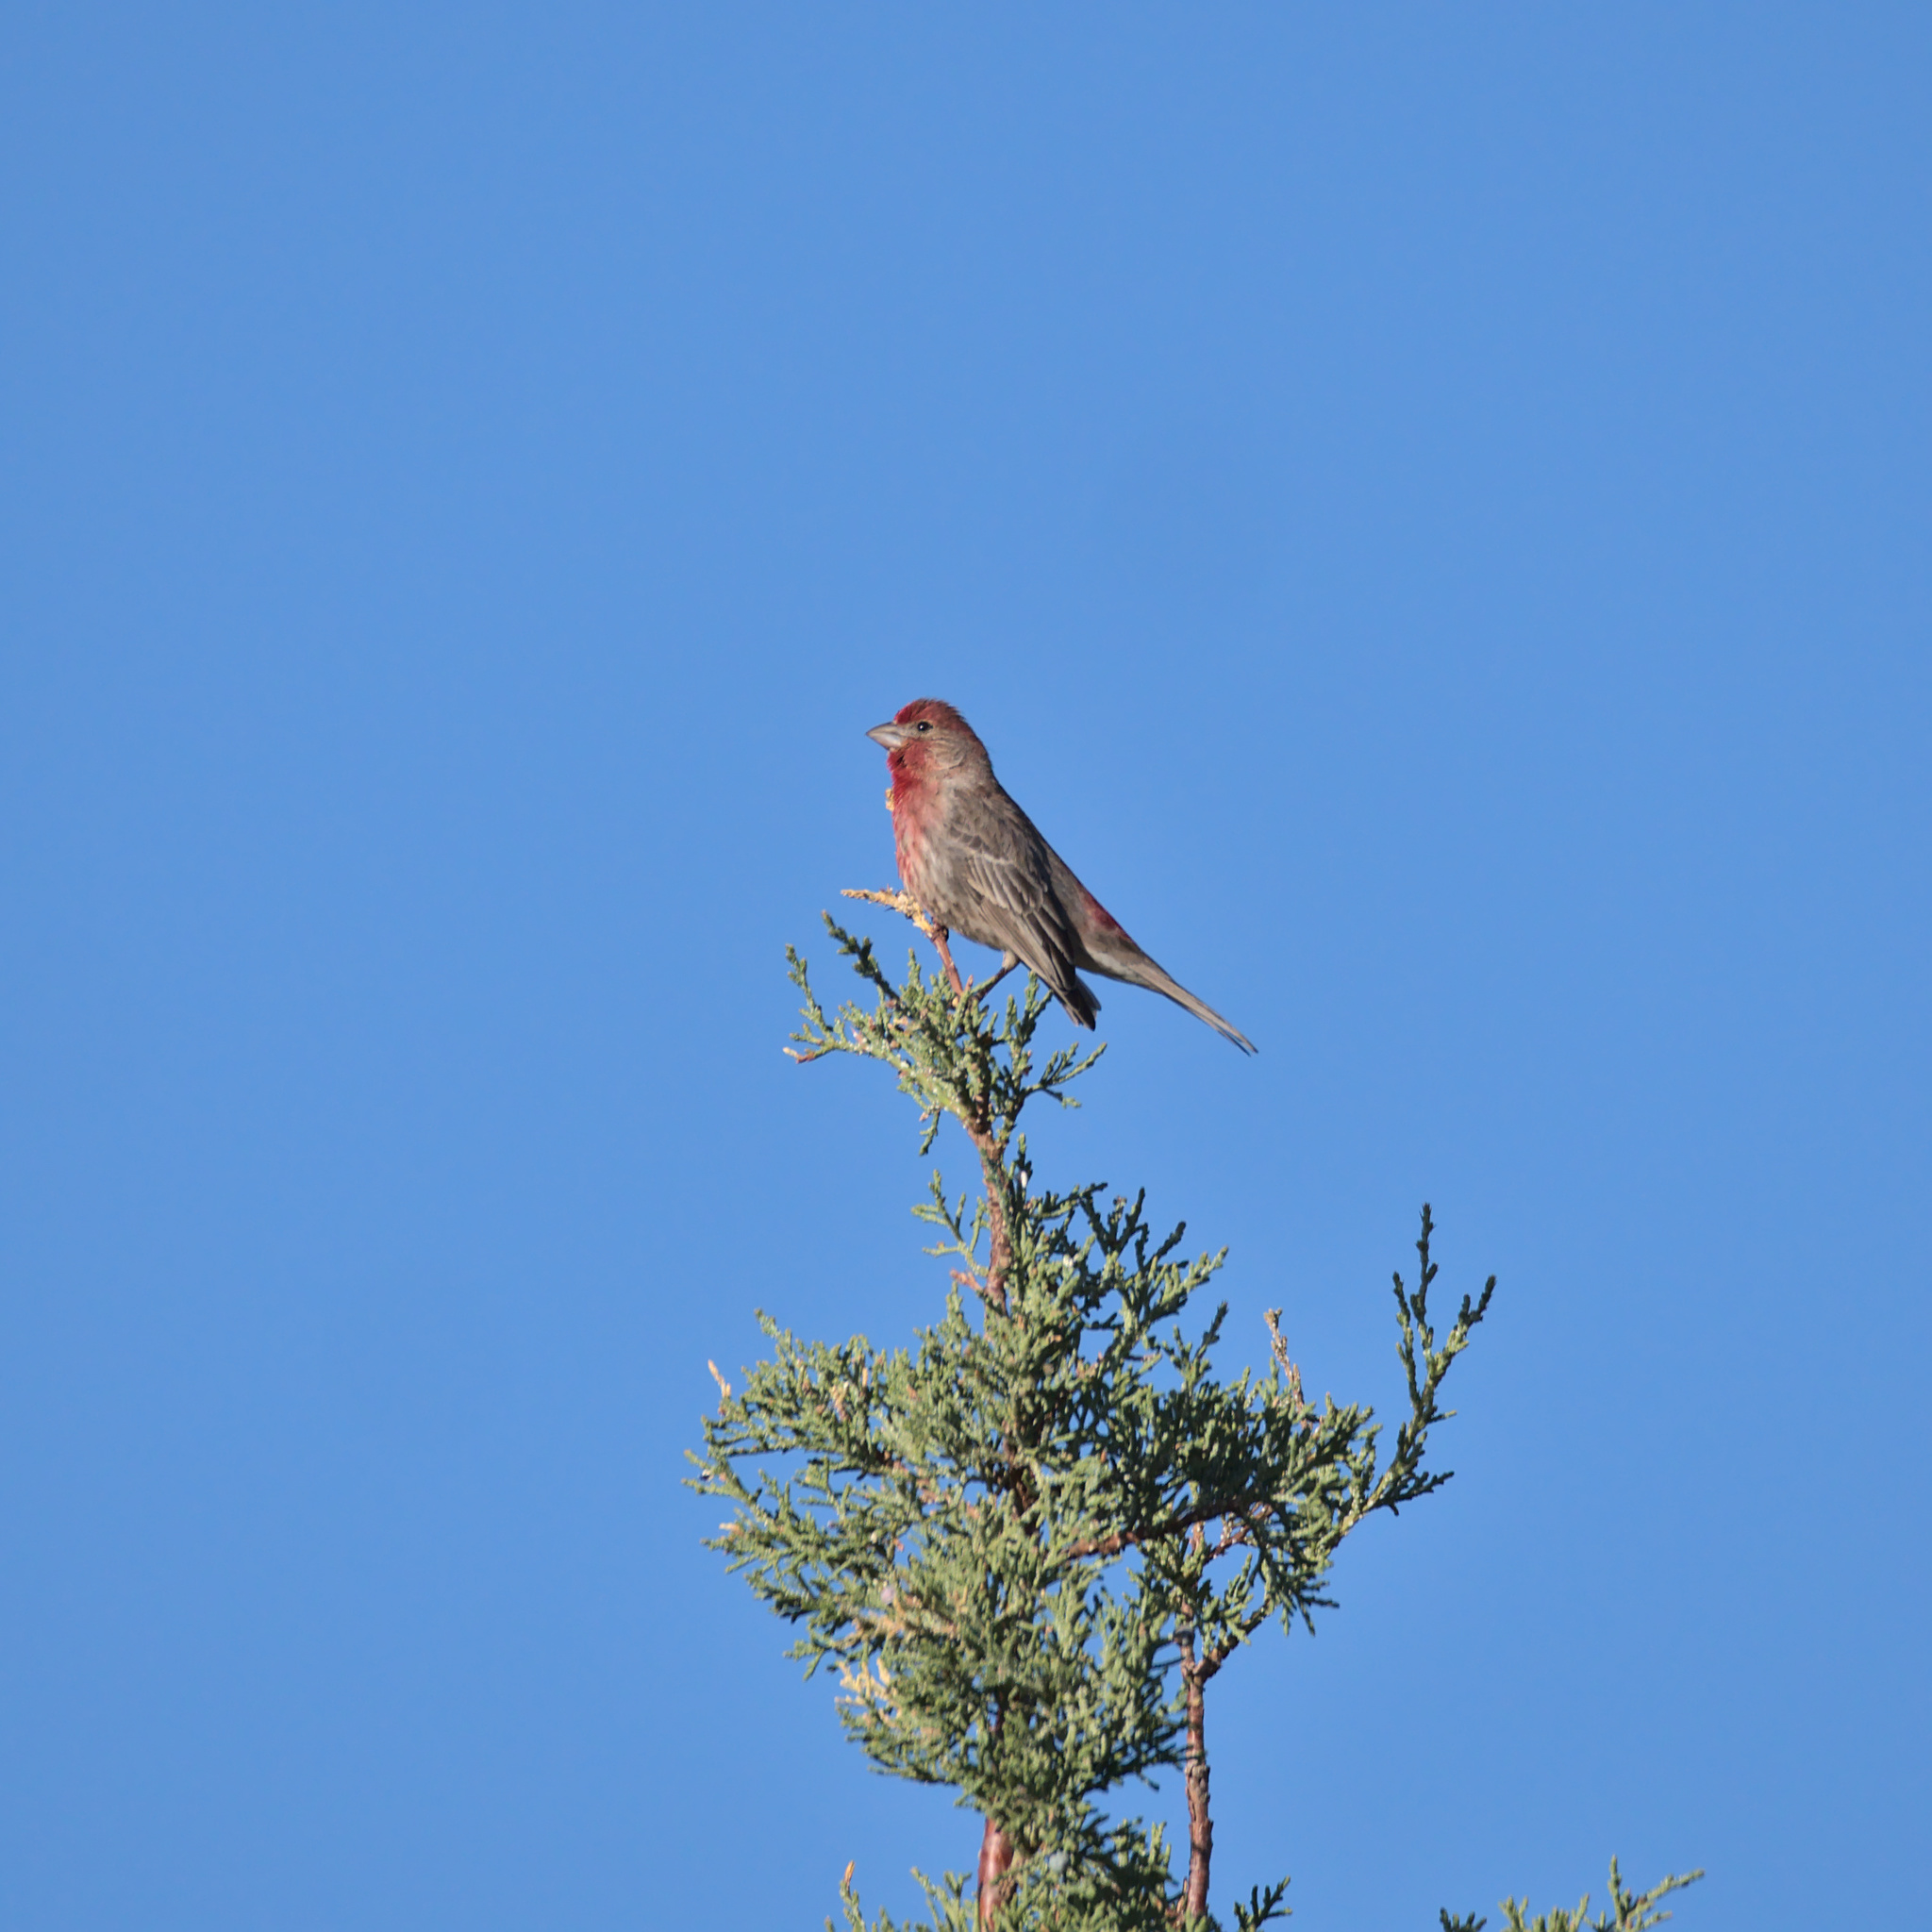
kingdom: Animalia
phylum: Chordata
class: Aves
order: Passeriformes
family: Fringillidae
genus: Haemorhous
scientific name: Haemorhous mexicanus
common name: House finch
